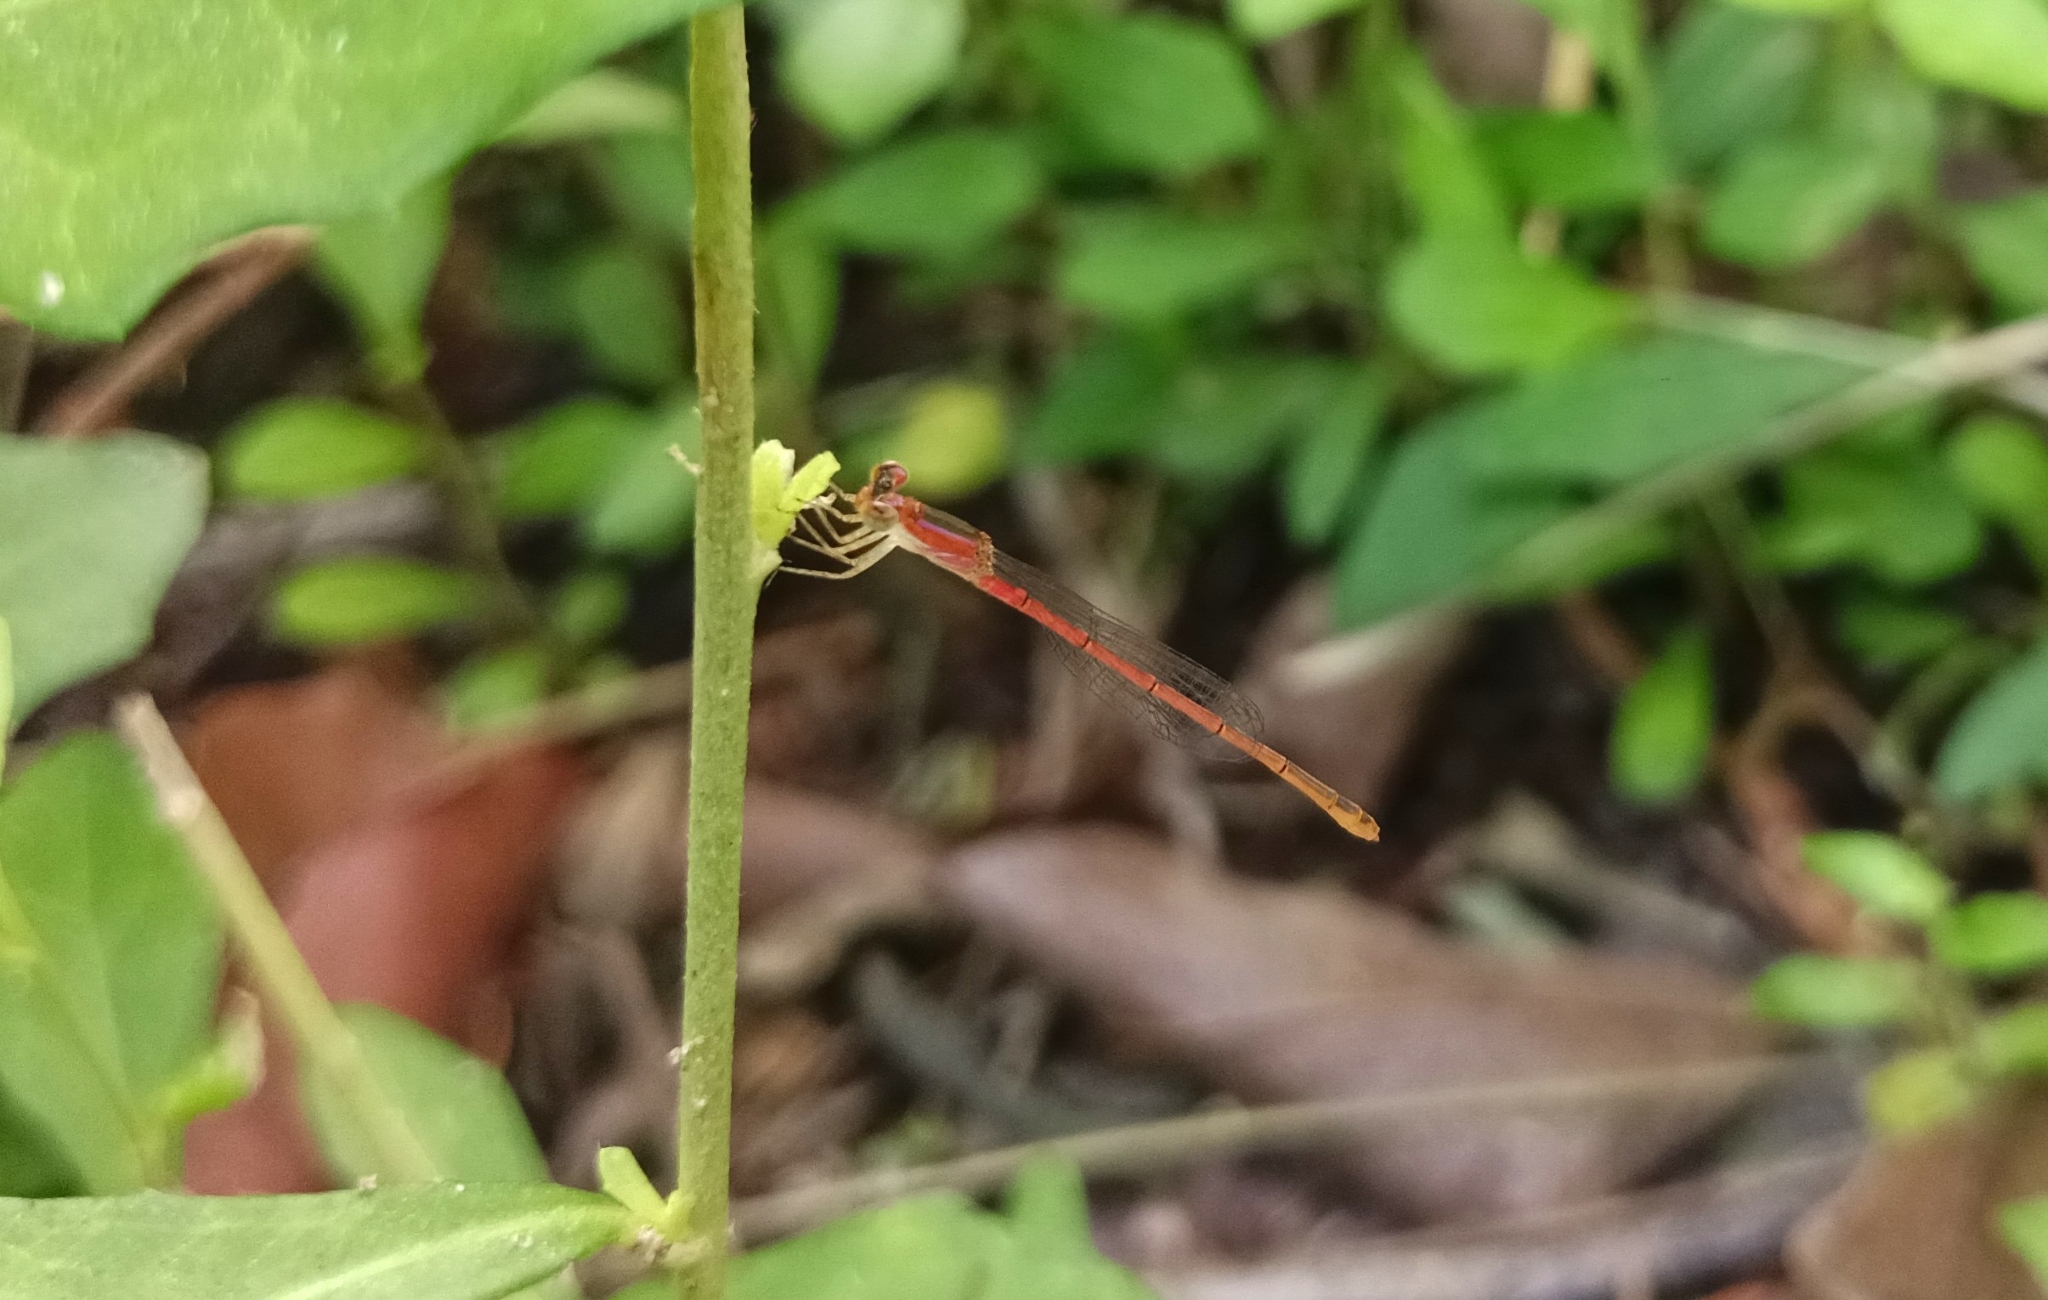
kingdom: Animalia
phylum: Arthropoda
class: Insecta
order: Odonata
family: Coenagrionidae
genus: Agriocnemis
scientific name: Agriocnemis pygmaea
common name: Pygmy wisp
